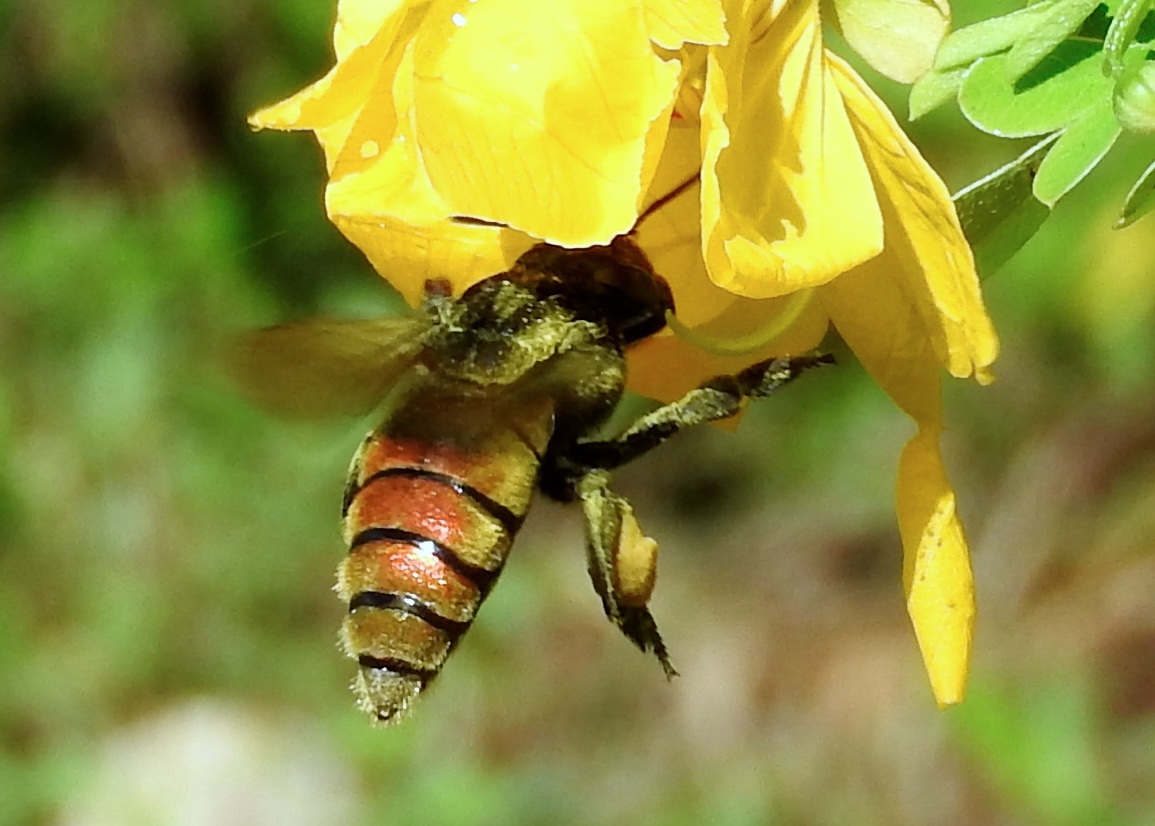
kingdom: Animalia
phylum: Arthropoda
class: Insecta
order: Hymenoptera
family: Apidae
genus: Eufriesea
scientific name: Eufriesea
